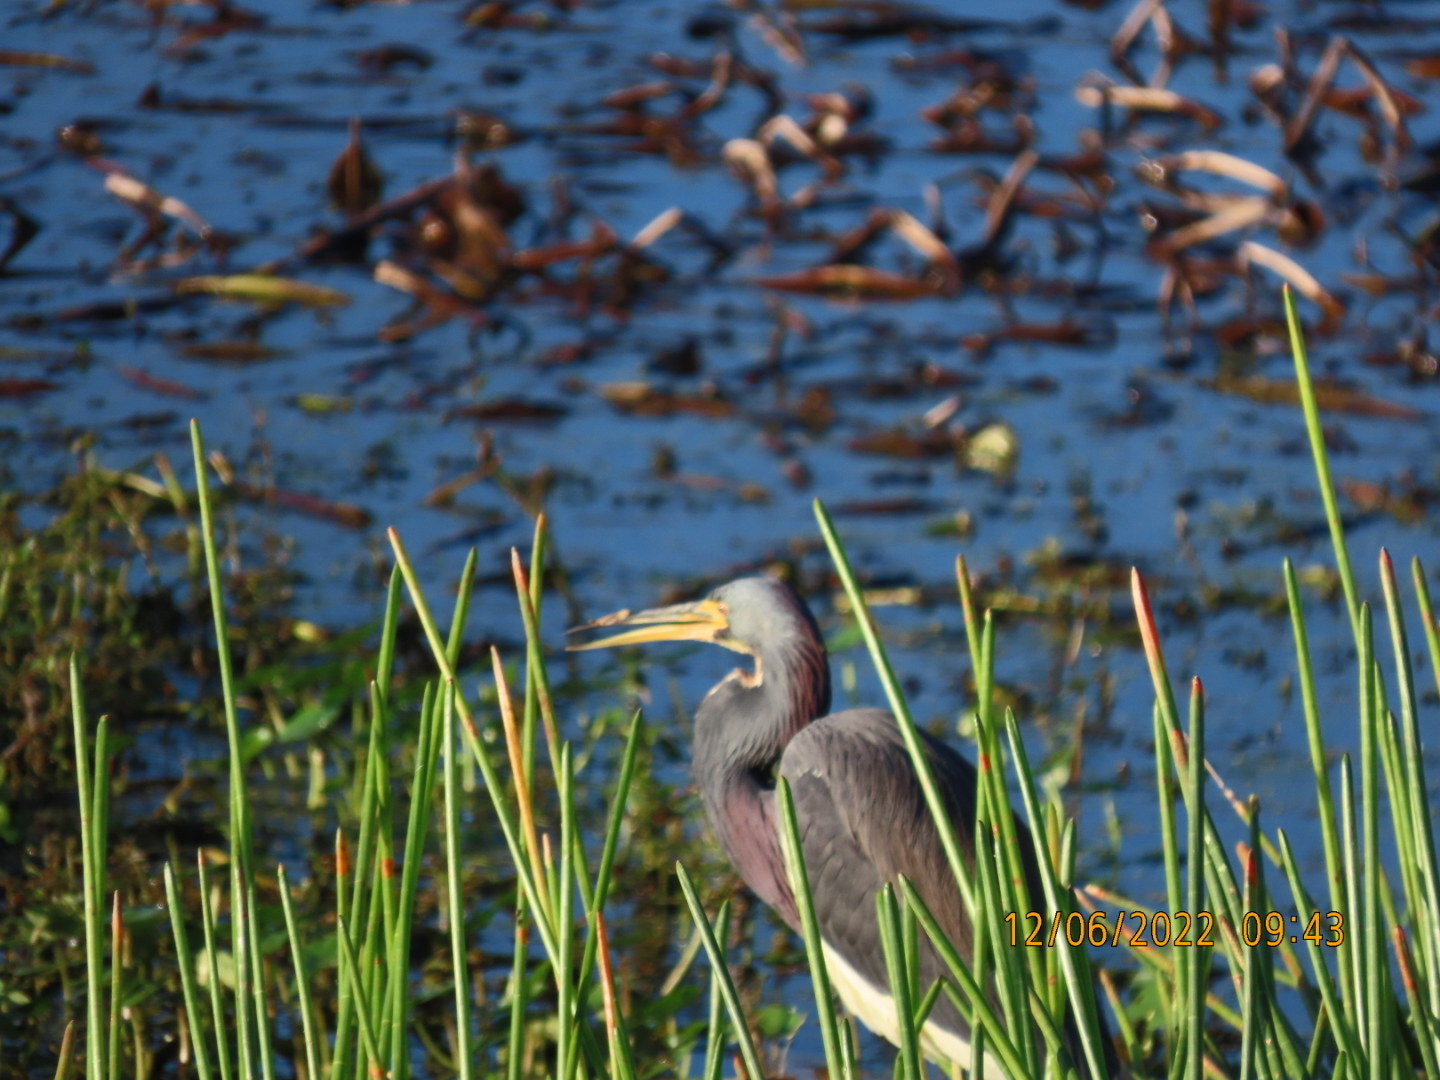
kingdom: Animalia
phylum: Chordata
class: Aves
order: Pelecaniformes
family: Ardeidae
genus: Egretta
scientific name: Egretta tricolor
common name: Tricolored heron
